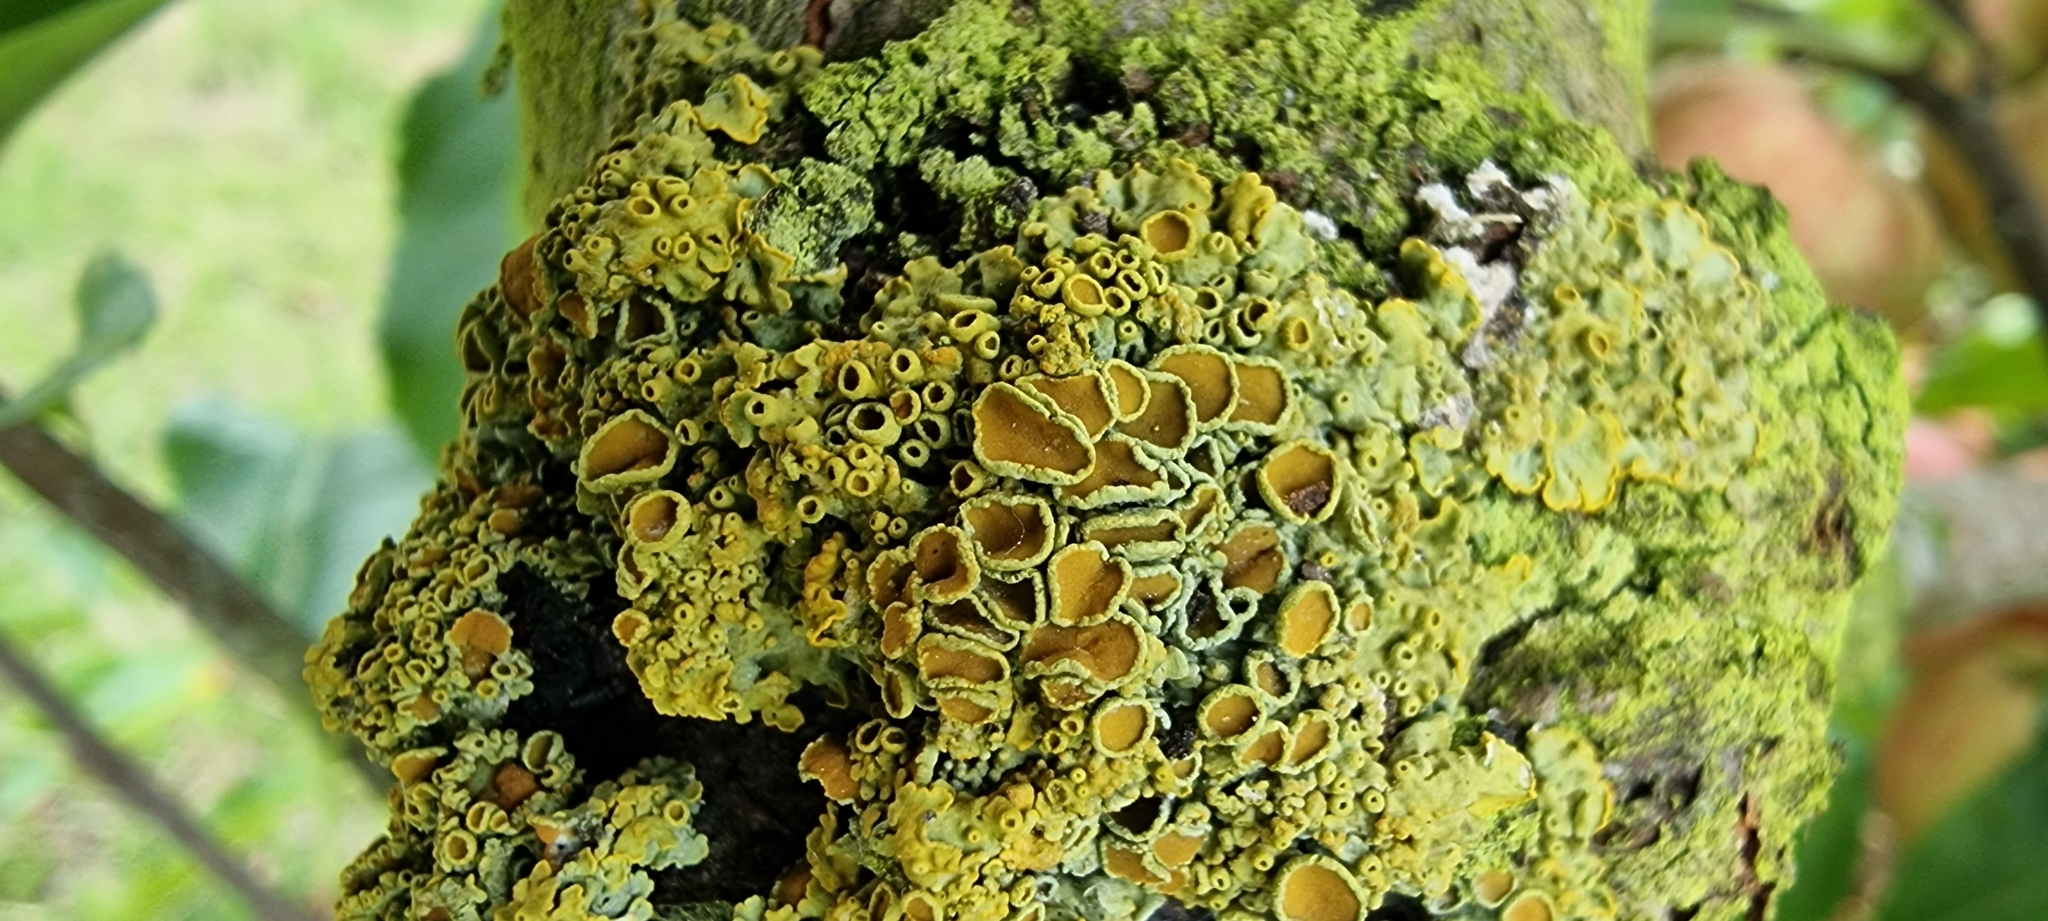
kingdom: Fungi
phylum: Ascomycota
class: Lecanoromycetes
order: Teloschistales
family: Teloschistaceae
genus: Xanthoria
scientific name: Xanthoria parietina
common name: Common orange lichen
